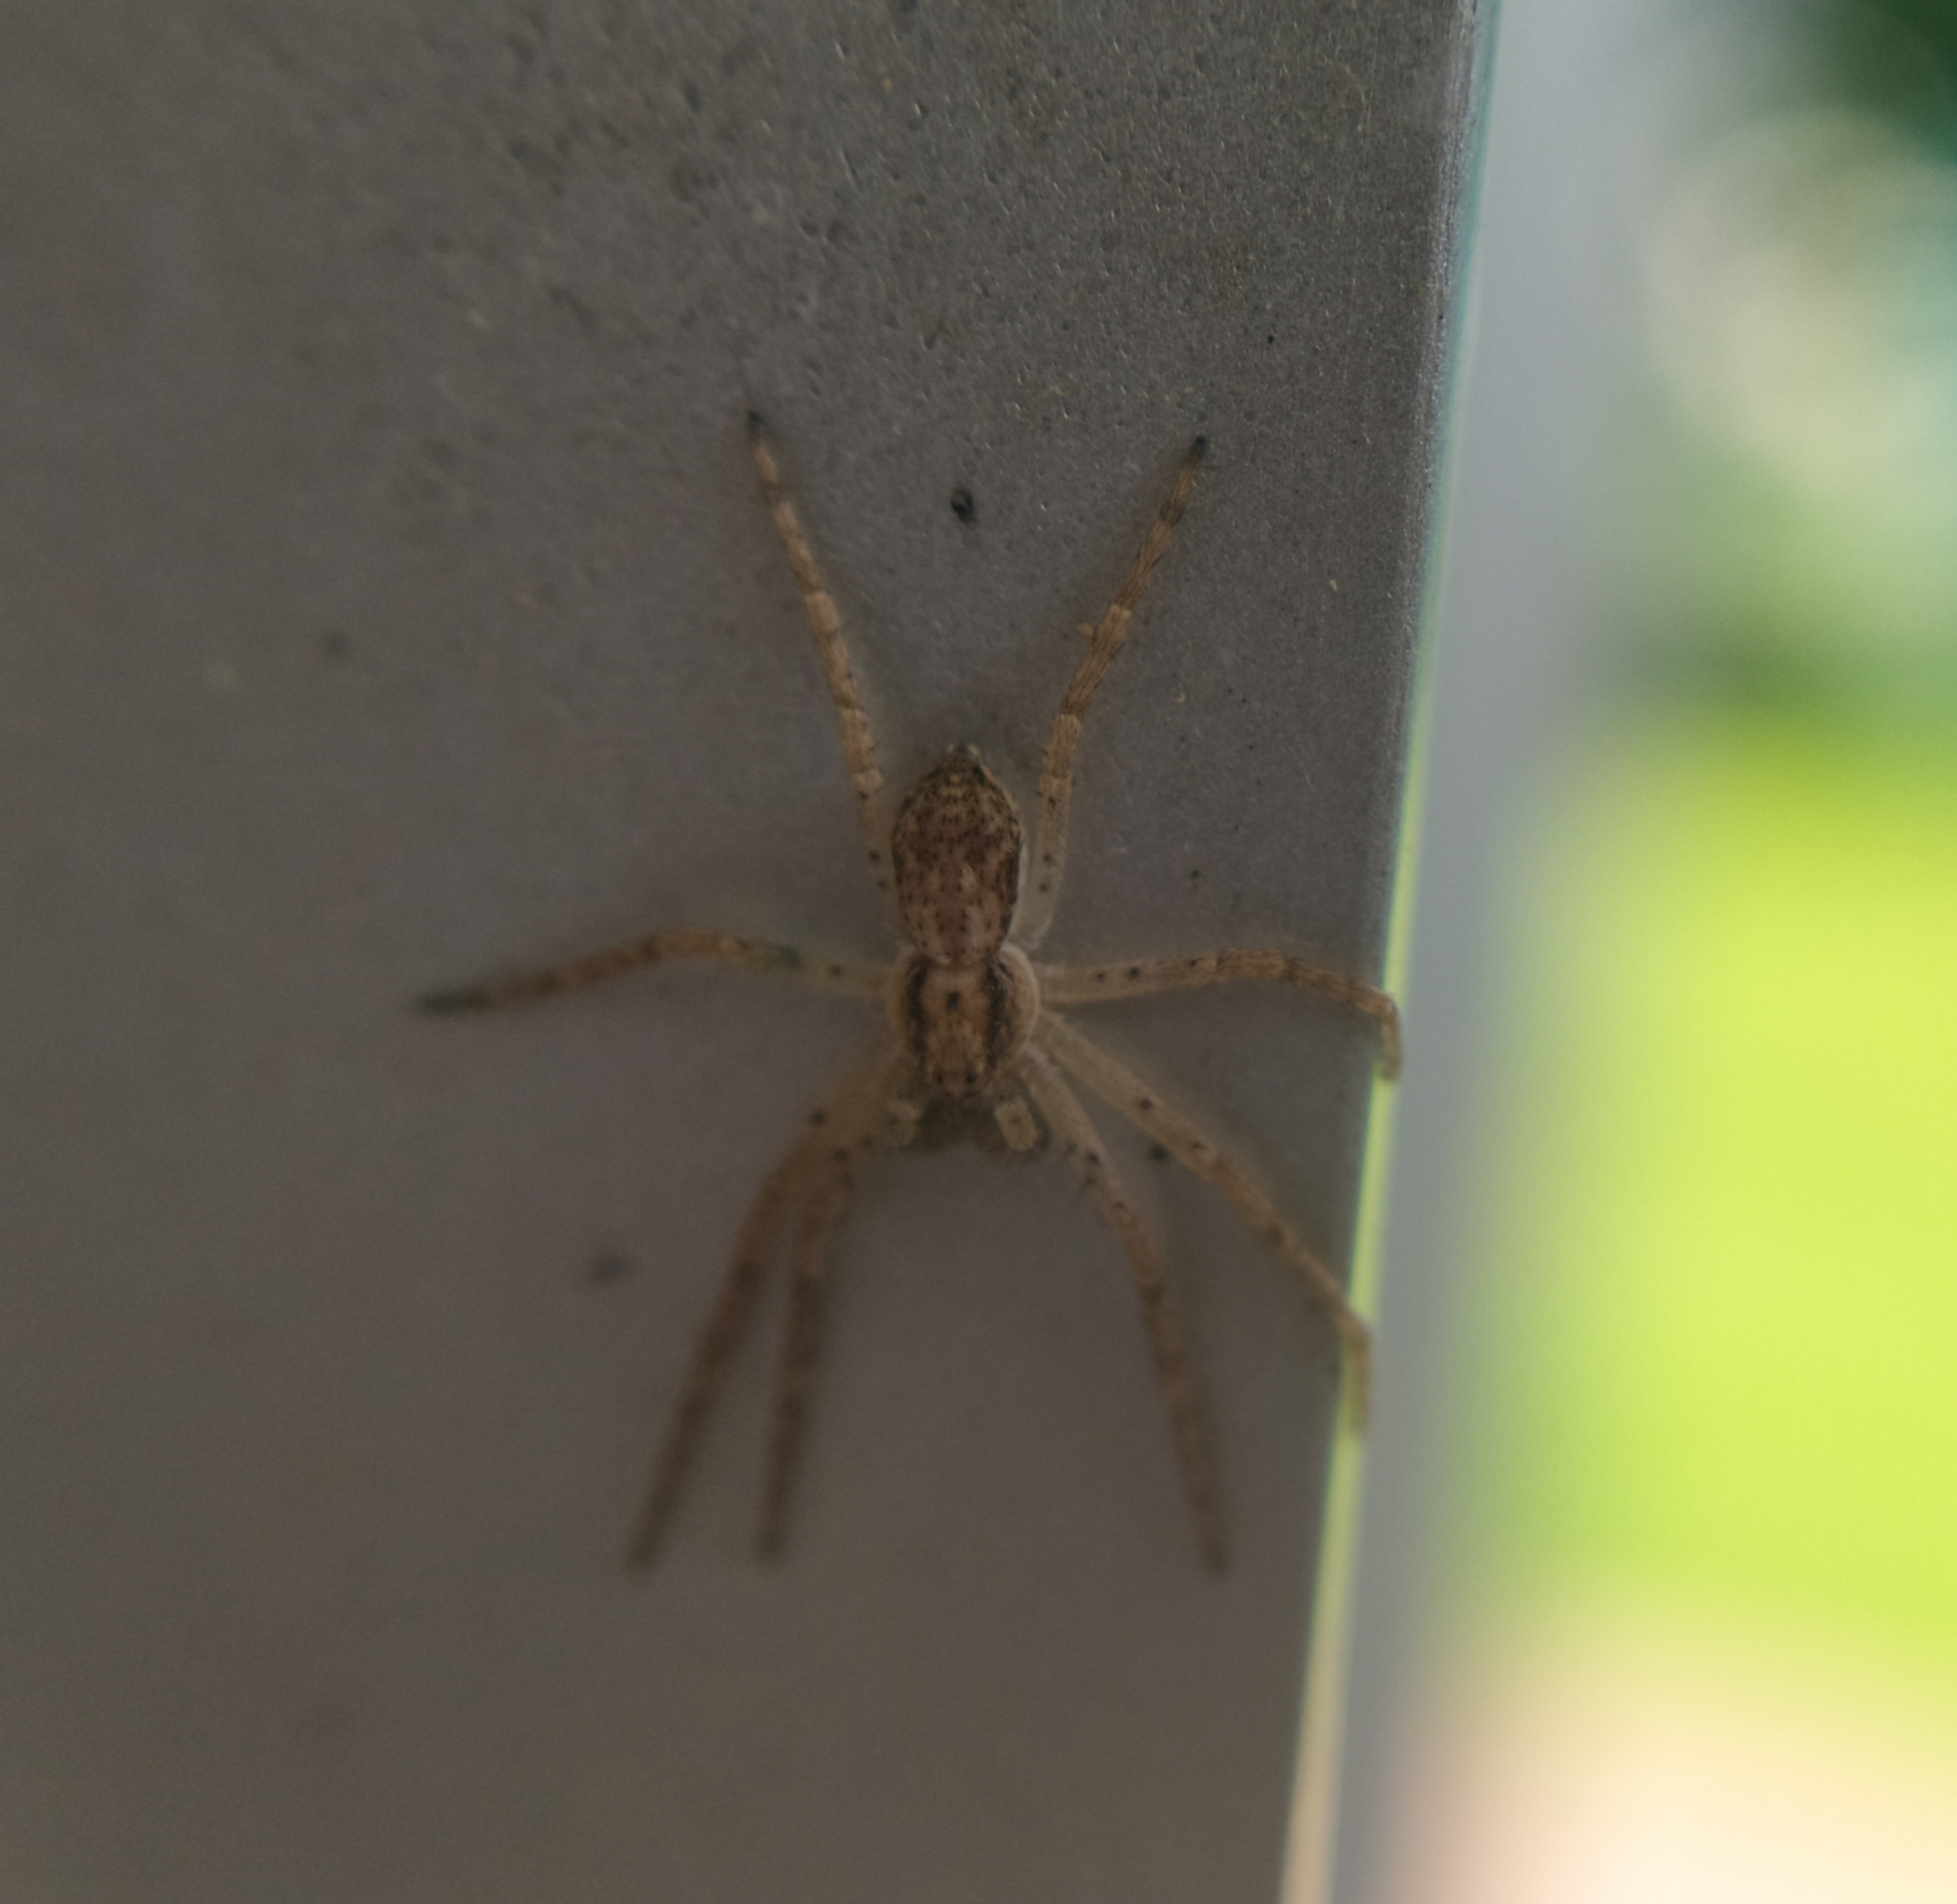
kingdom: Animalia
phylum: Arthropoda
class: Arachnida
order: Araneae
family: Philodromidae
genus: Philodromus
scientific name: Philodromus dispar
